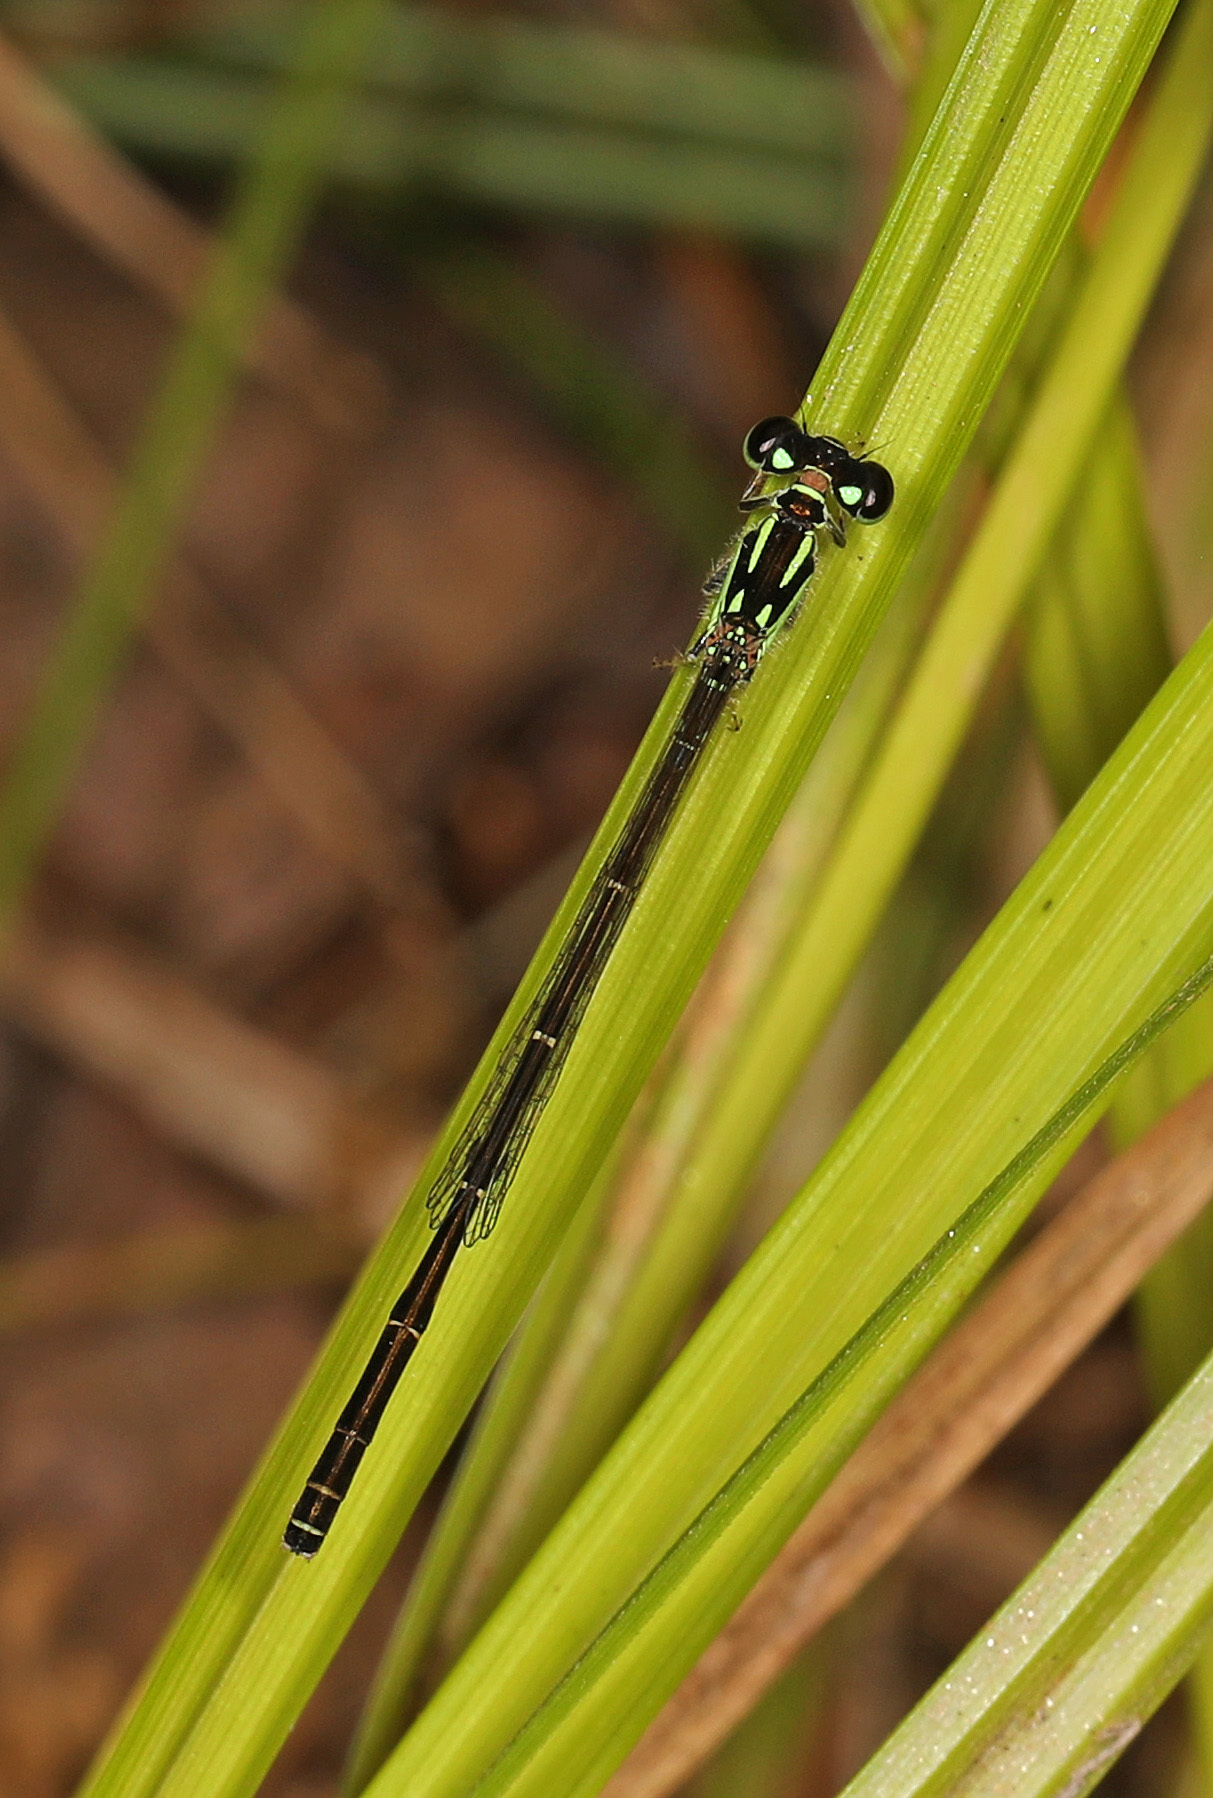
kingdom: Animalia
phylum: Arthropoda
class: Insecta
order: Odonata
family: Coenagrionidae
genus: Ischnura
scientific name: Ischnura posita
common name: Fragile forktail
